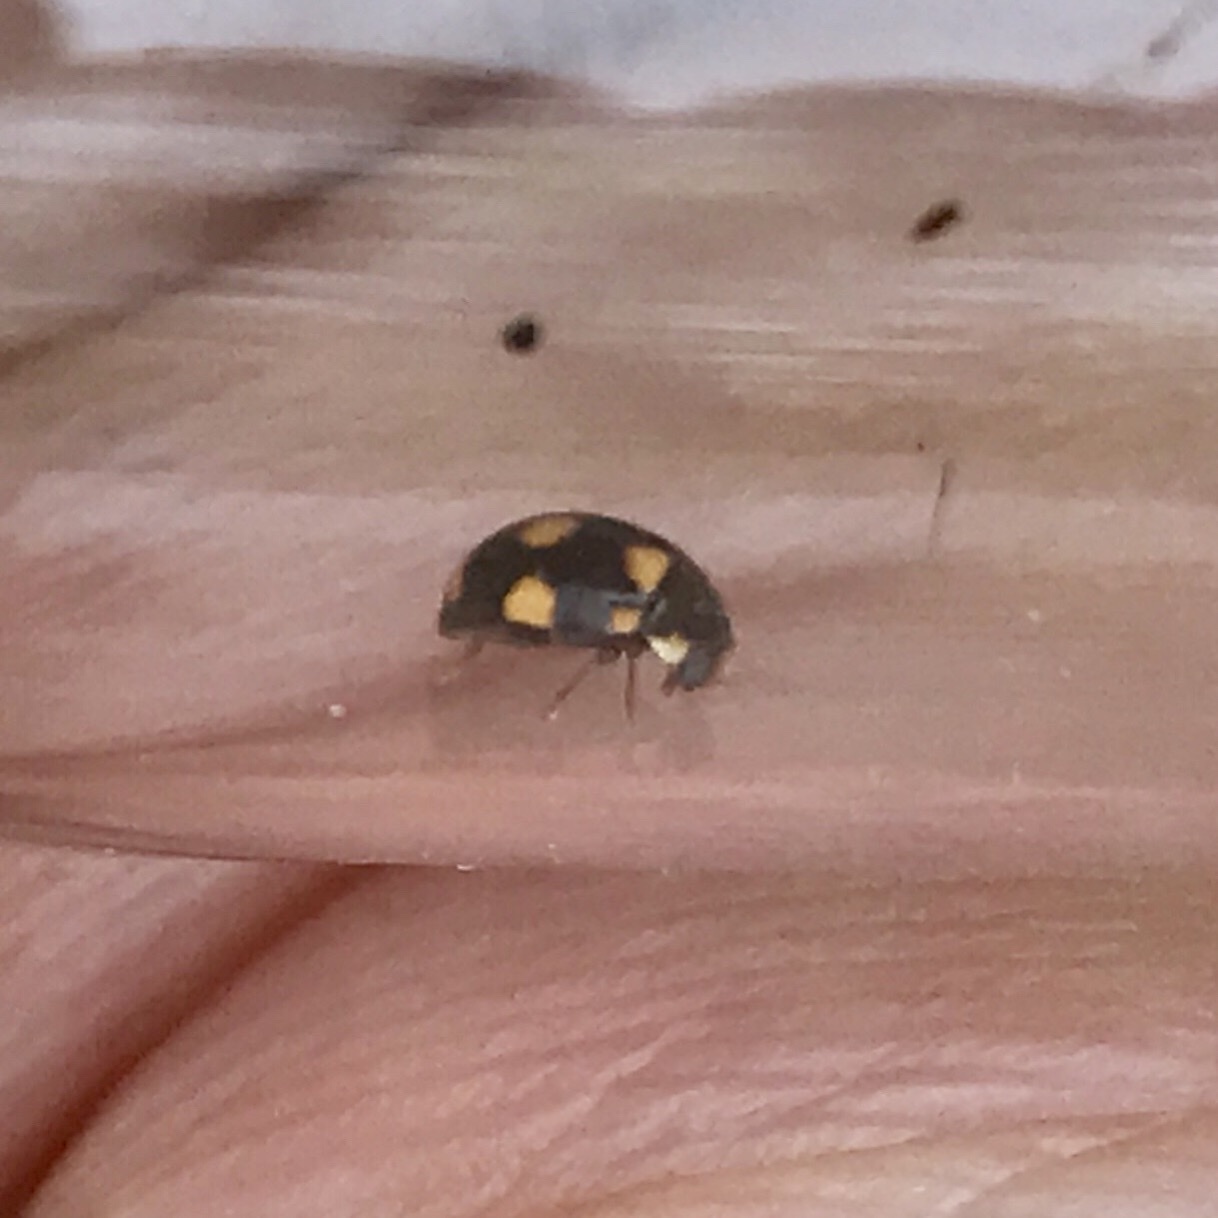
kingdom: Animalia
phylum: Arthropoda
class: Insecta
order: Coleoptera
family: Coccinellidae
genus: Brachiacantha
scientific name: Brachiacantha ursina
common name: Ursine spurleg lady beetle
